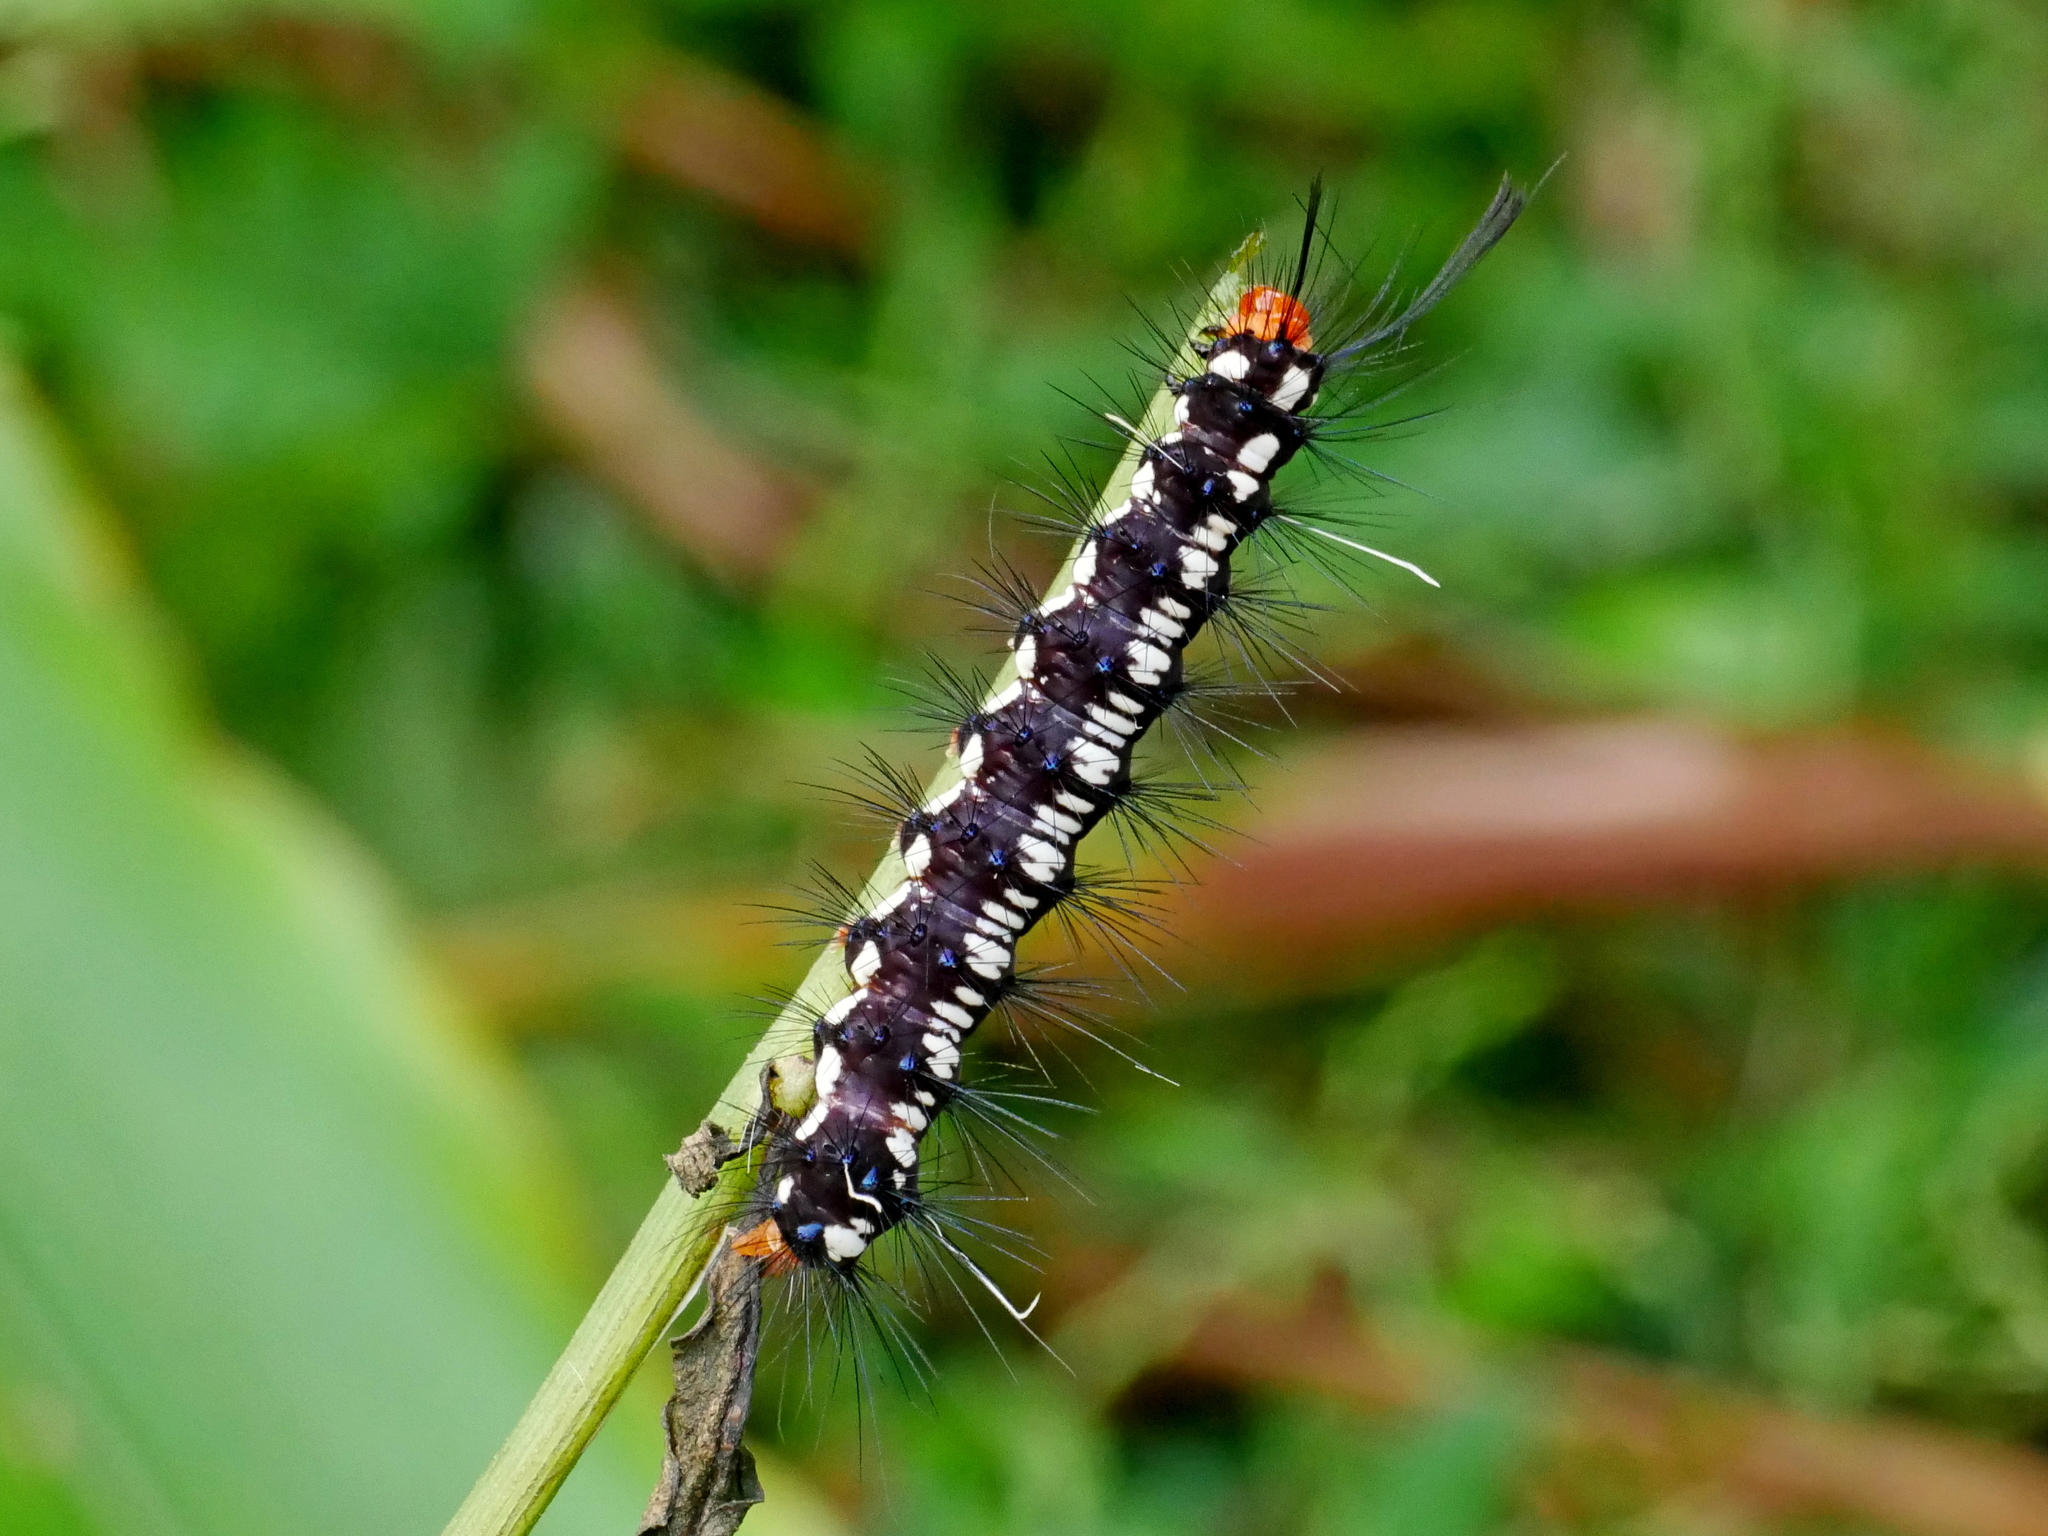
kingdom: Animalia
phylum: Arthropoda
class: Insecta
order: Lepidoptera
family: Erebidae
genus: Nyctemera
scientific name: Nyctemera adversata
